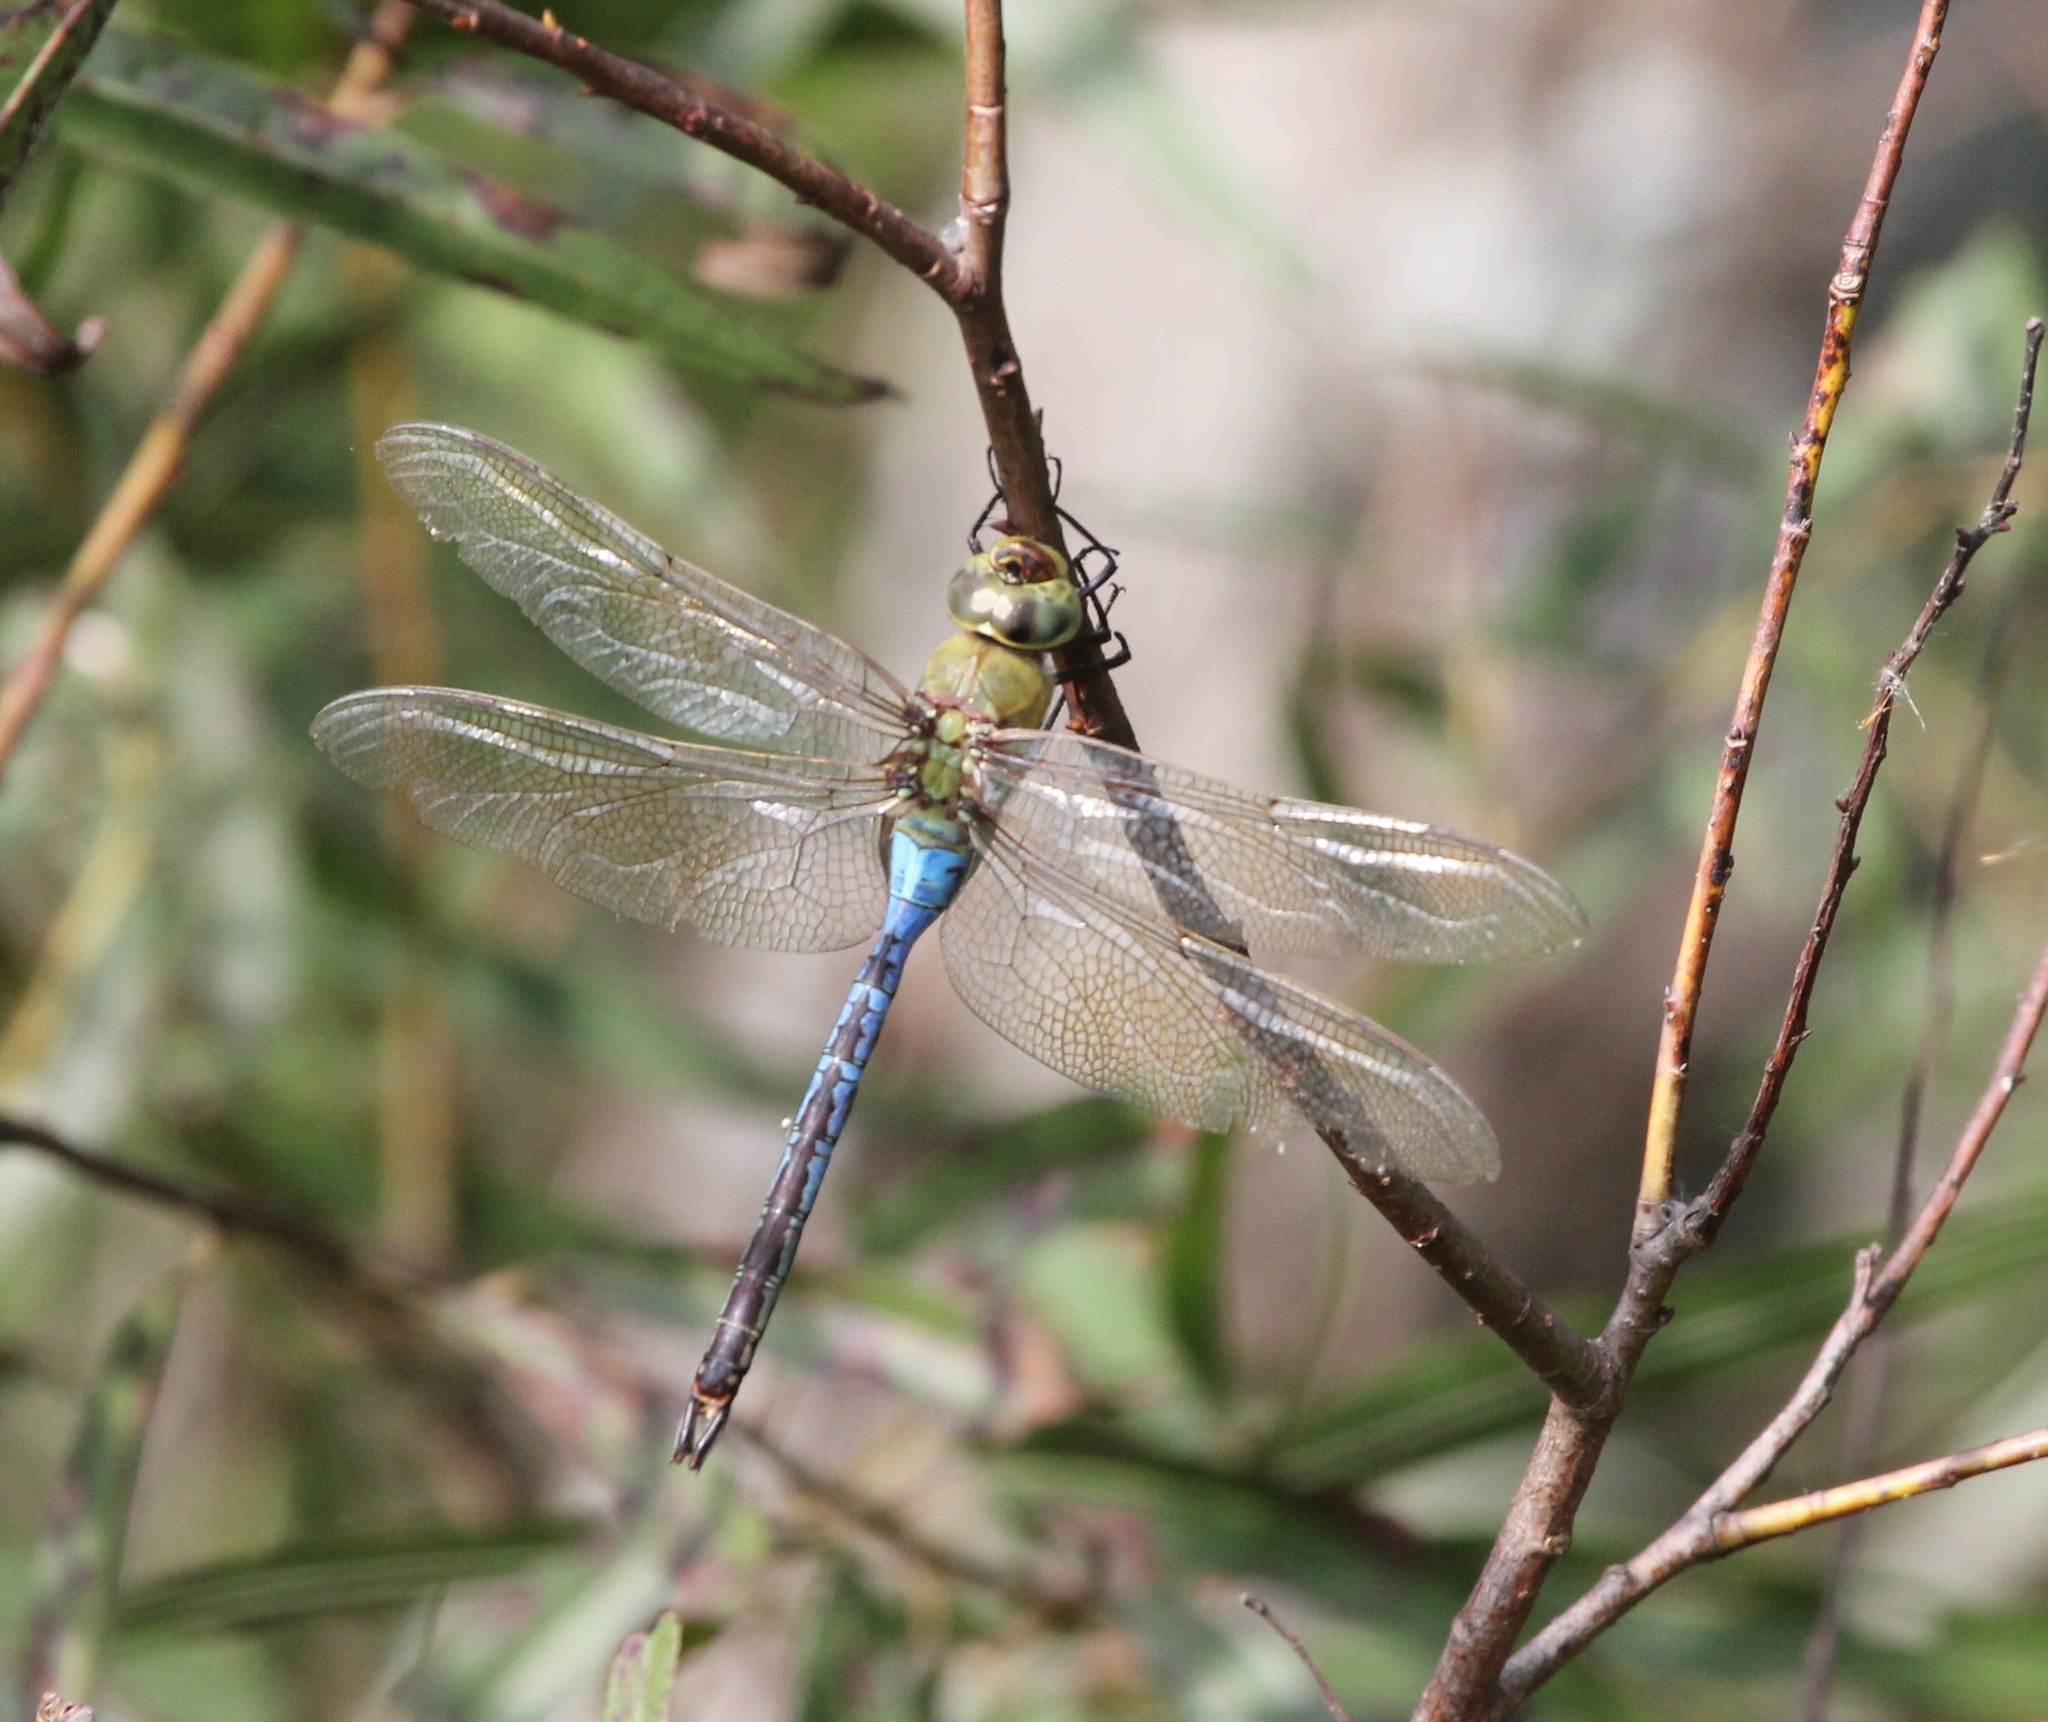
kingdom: Animalia
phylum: Arthropoda
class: Insecta
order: Odonata
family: Aeshnidae
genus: Anax
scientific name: Anax junius
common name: Common green darner
